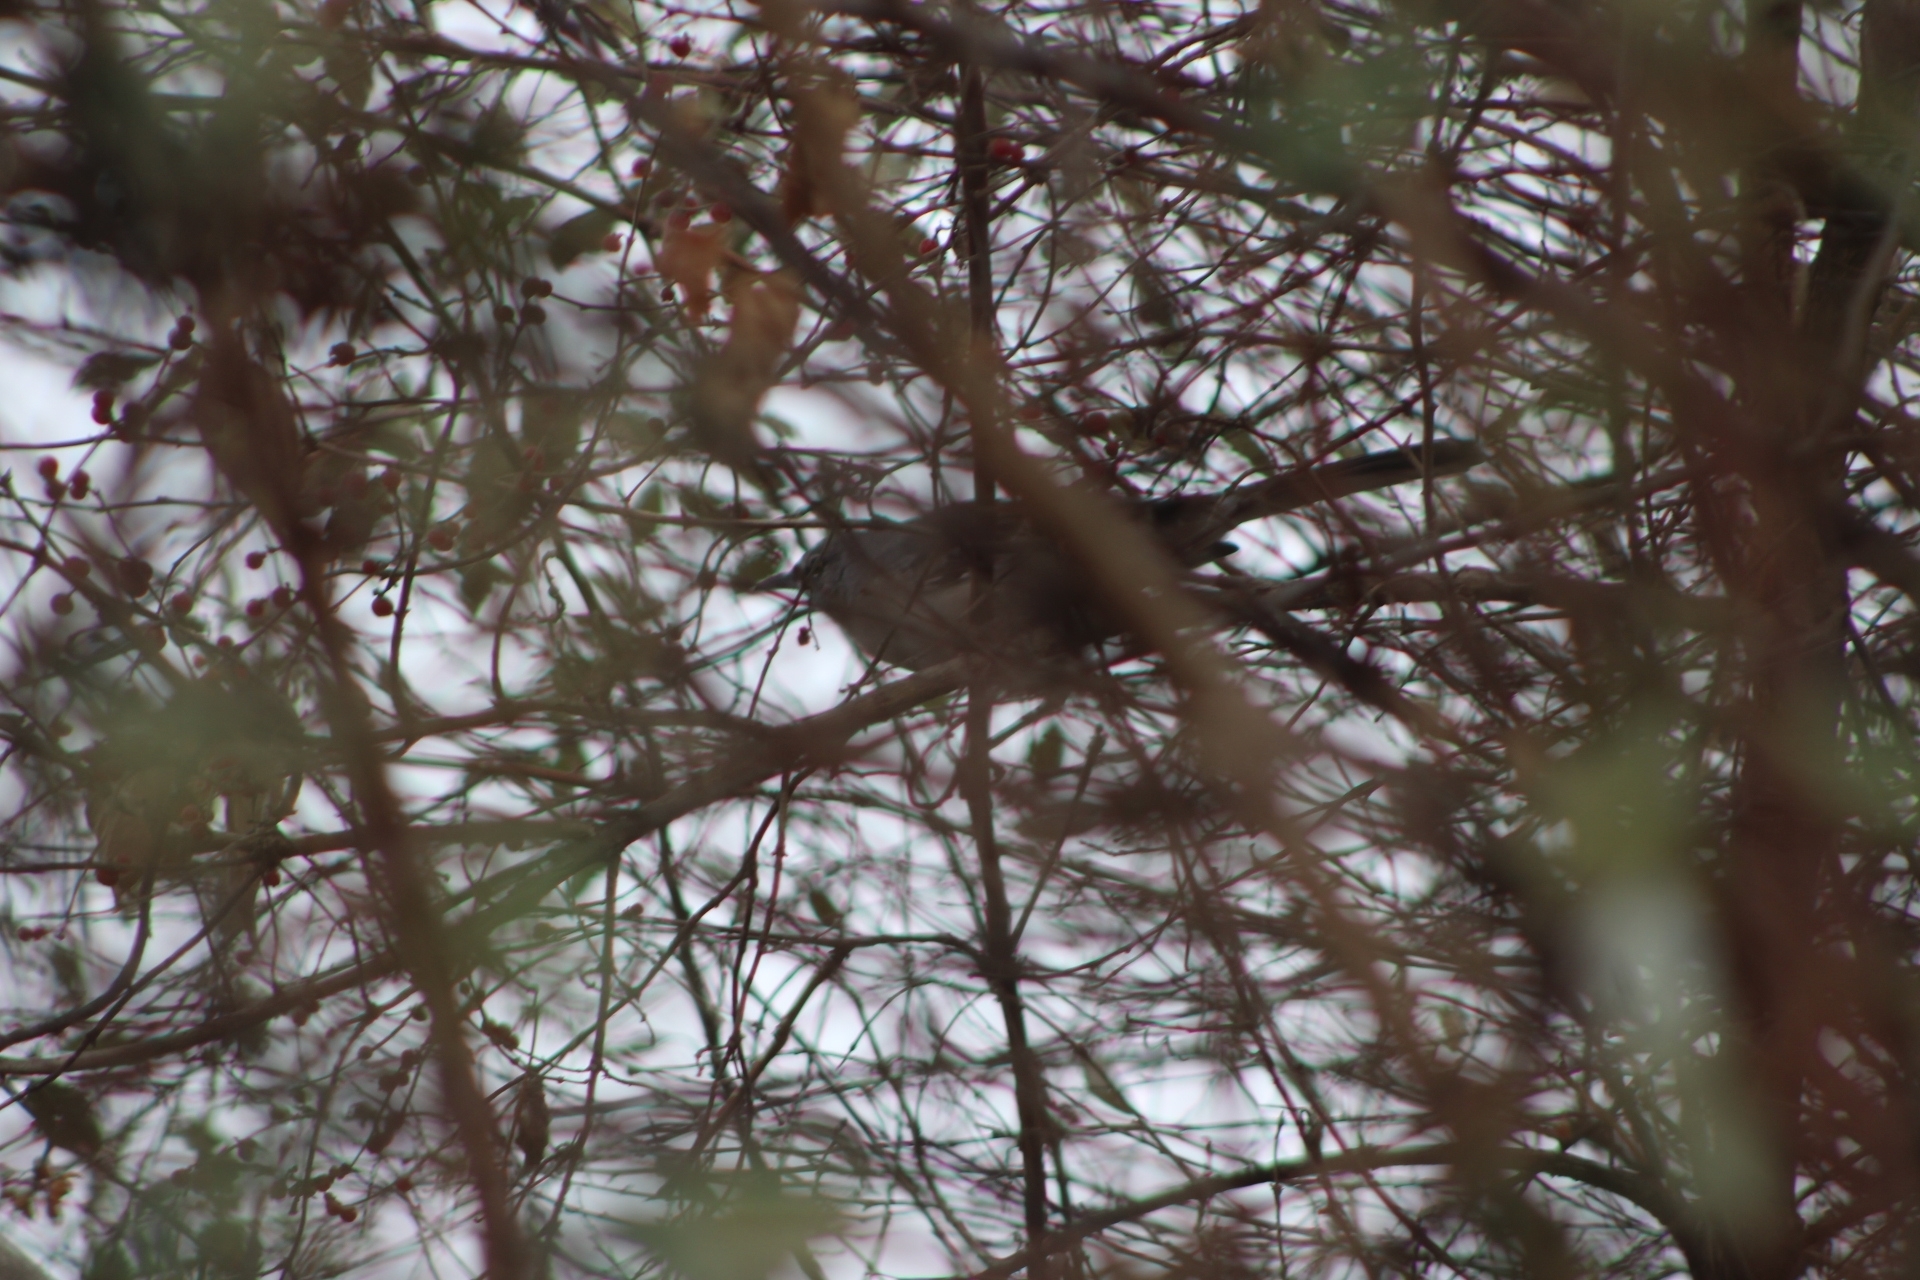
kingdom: Animalia
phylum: Chordata
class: Aves
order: Passeriformes
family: Mimidae
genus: Mimus
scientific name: Mimus polyglottos
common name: Northern mockingbird
